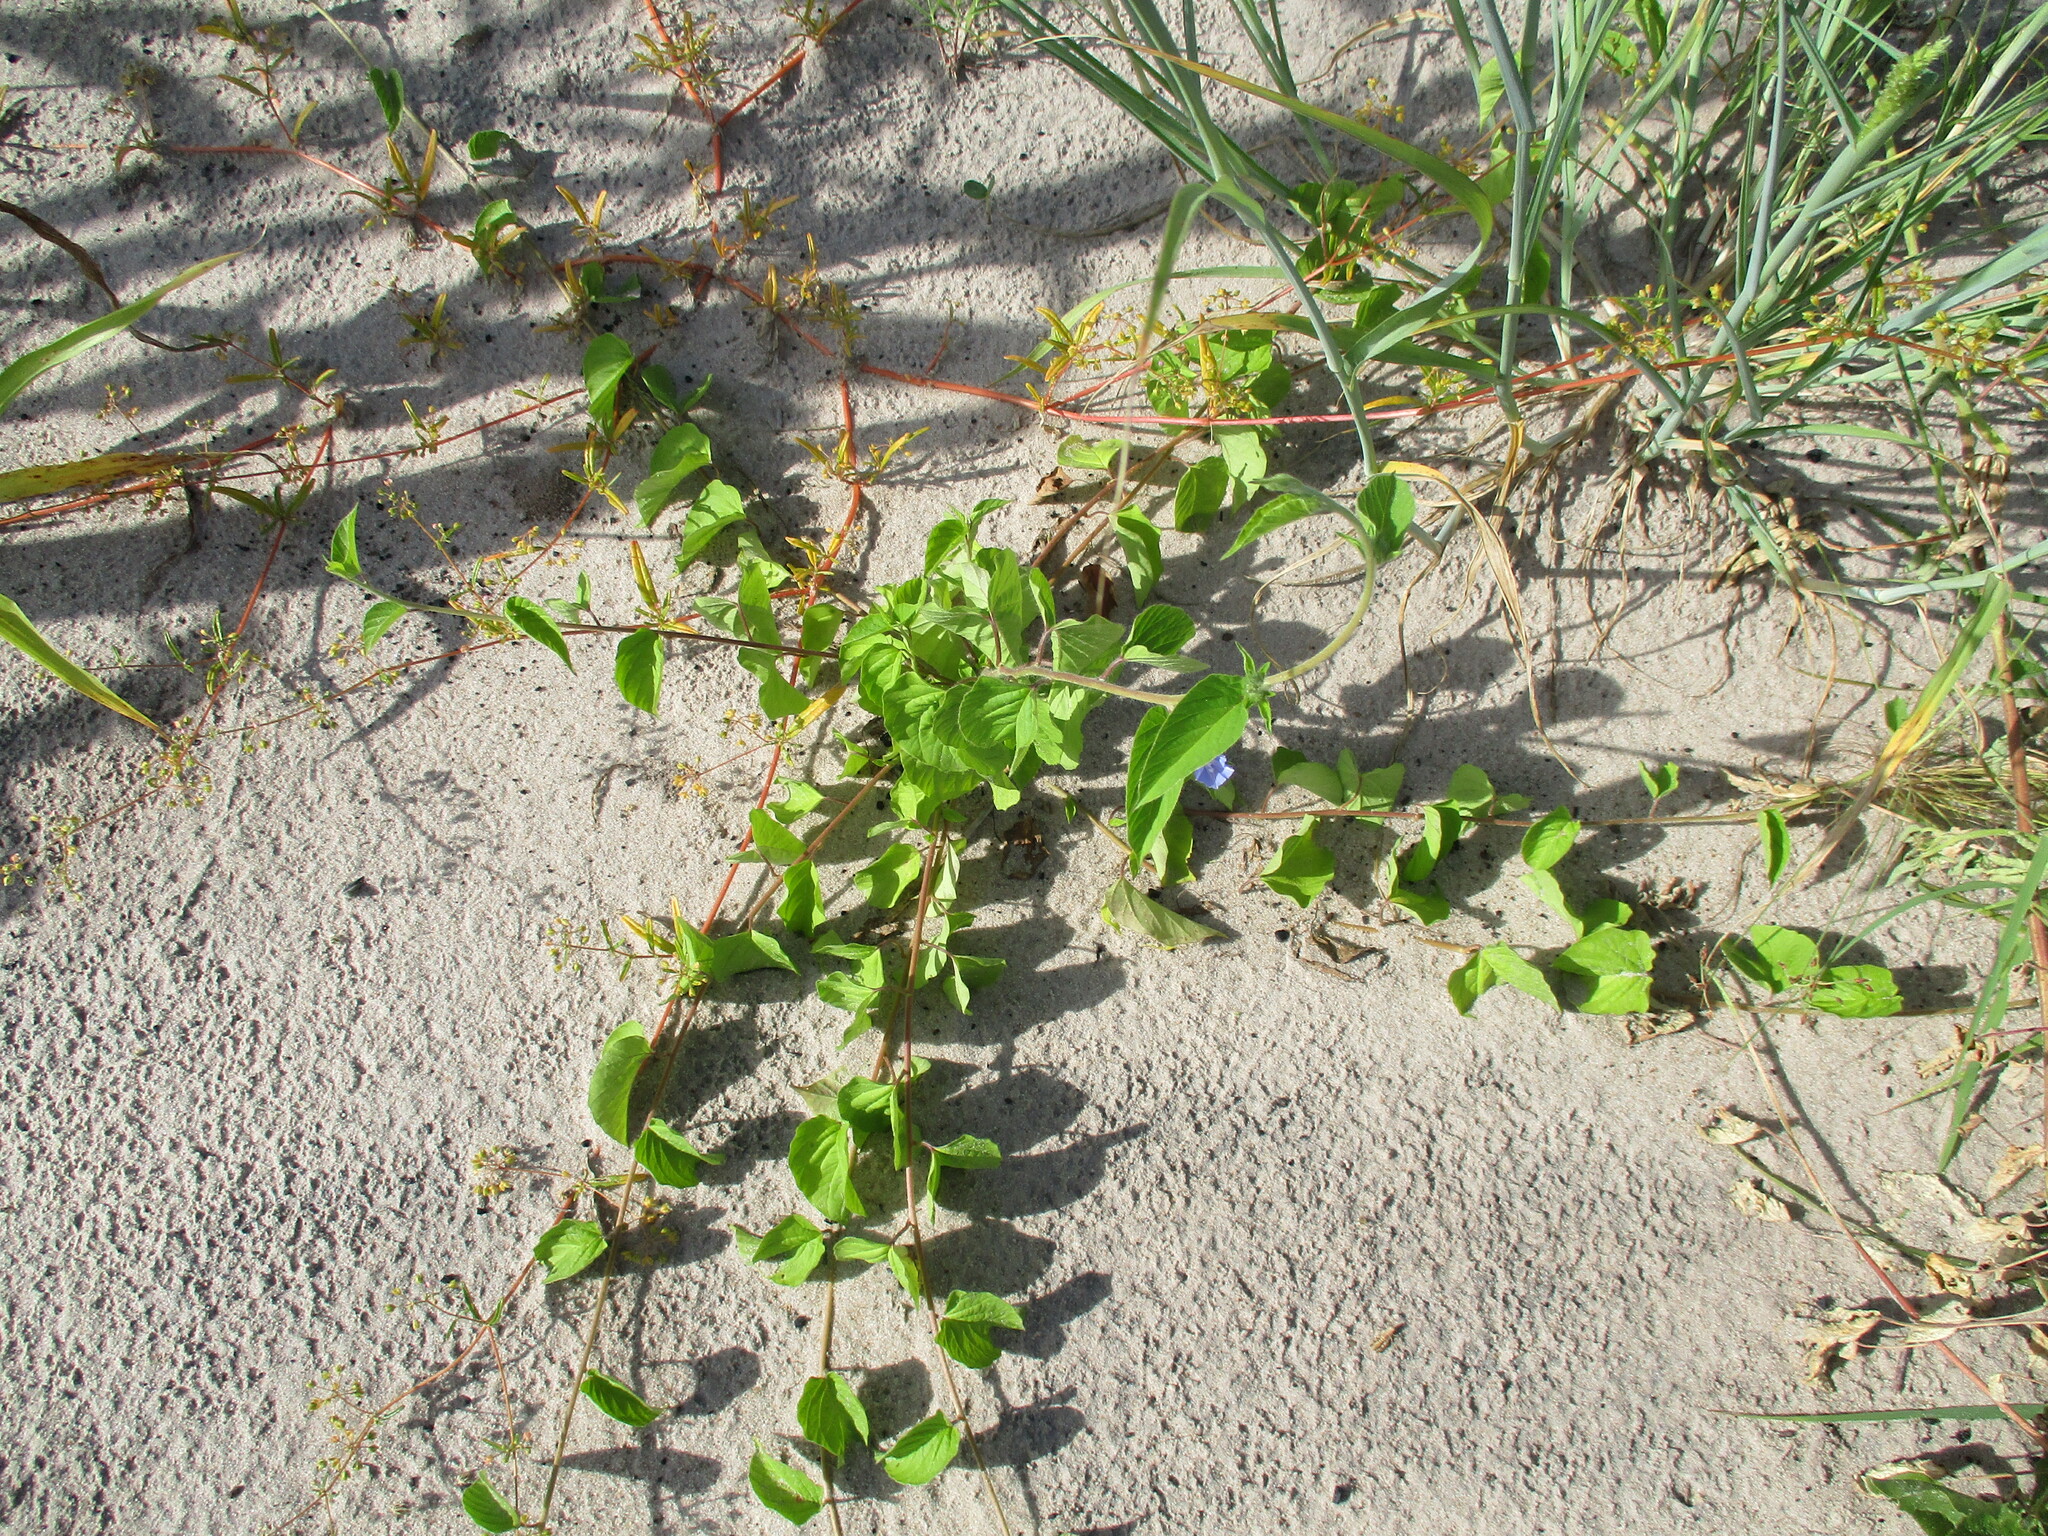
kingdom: Plantae
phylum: Tracheophyta
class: Magnoliopsida
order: Solanales
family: Convolvulaceae
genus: Jacquemontia
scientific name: Jacquemontia tamnifolia
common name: Hairy clustervine
